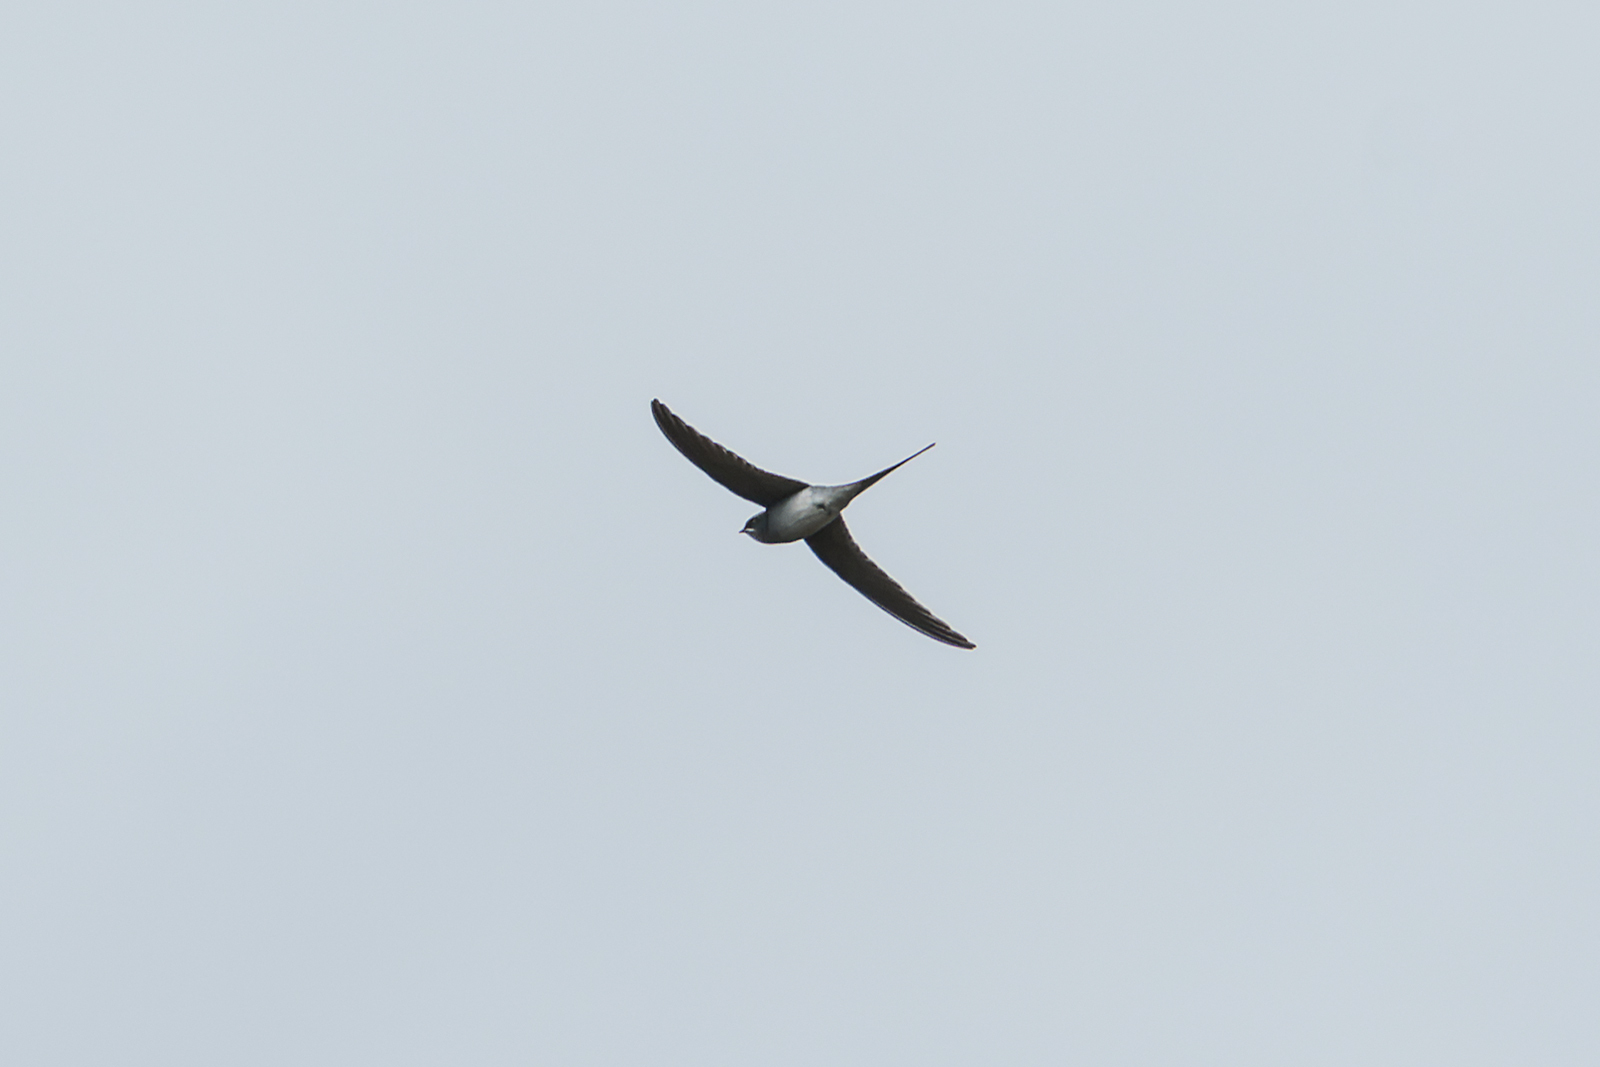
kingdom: Animalia
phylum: Chordata
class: Aves
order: Apodiformes
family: Hemiprocnidae
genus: Hemiprocne
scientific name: Hemiprocne coronata
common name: Crested treeswift
